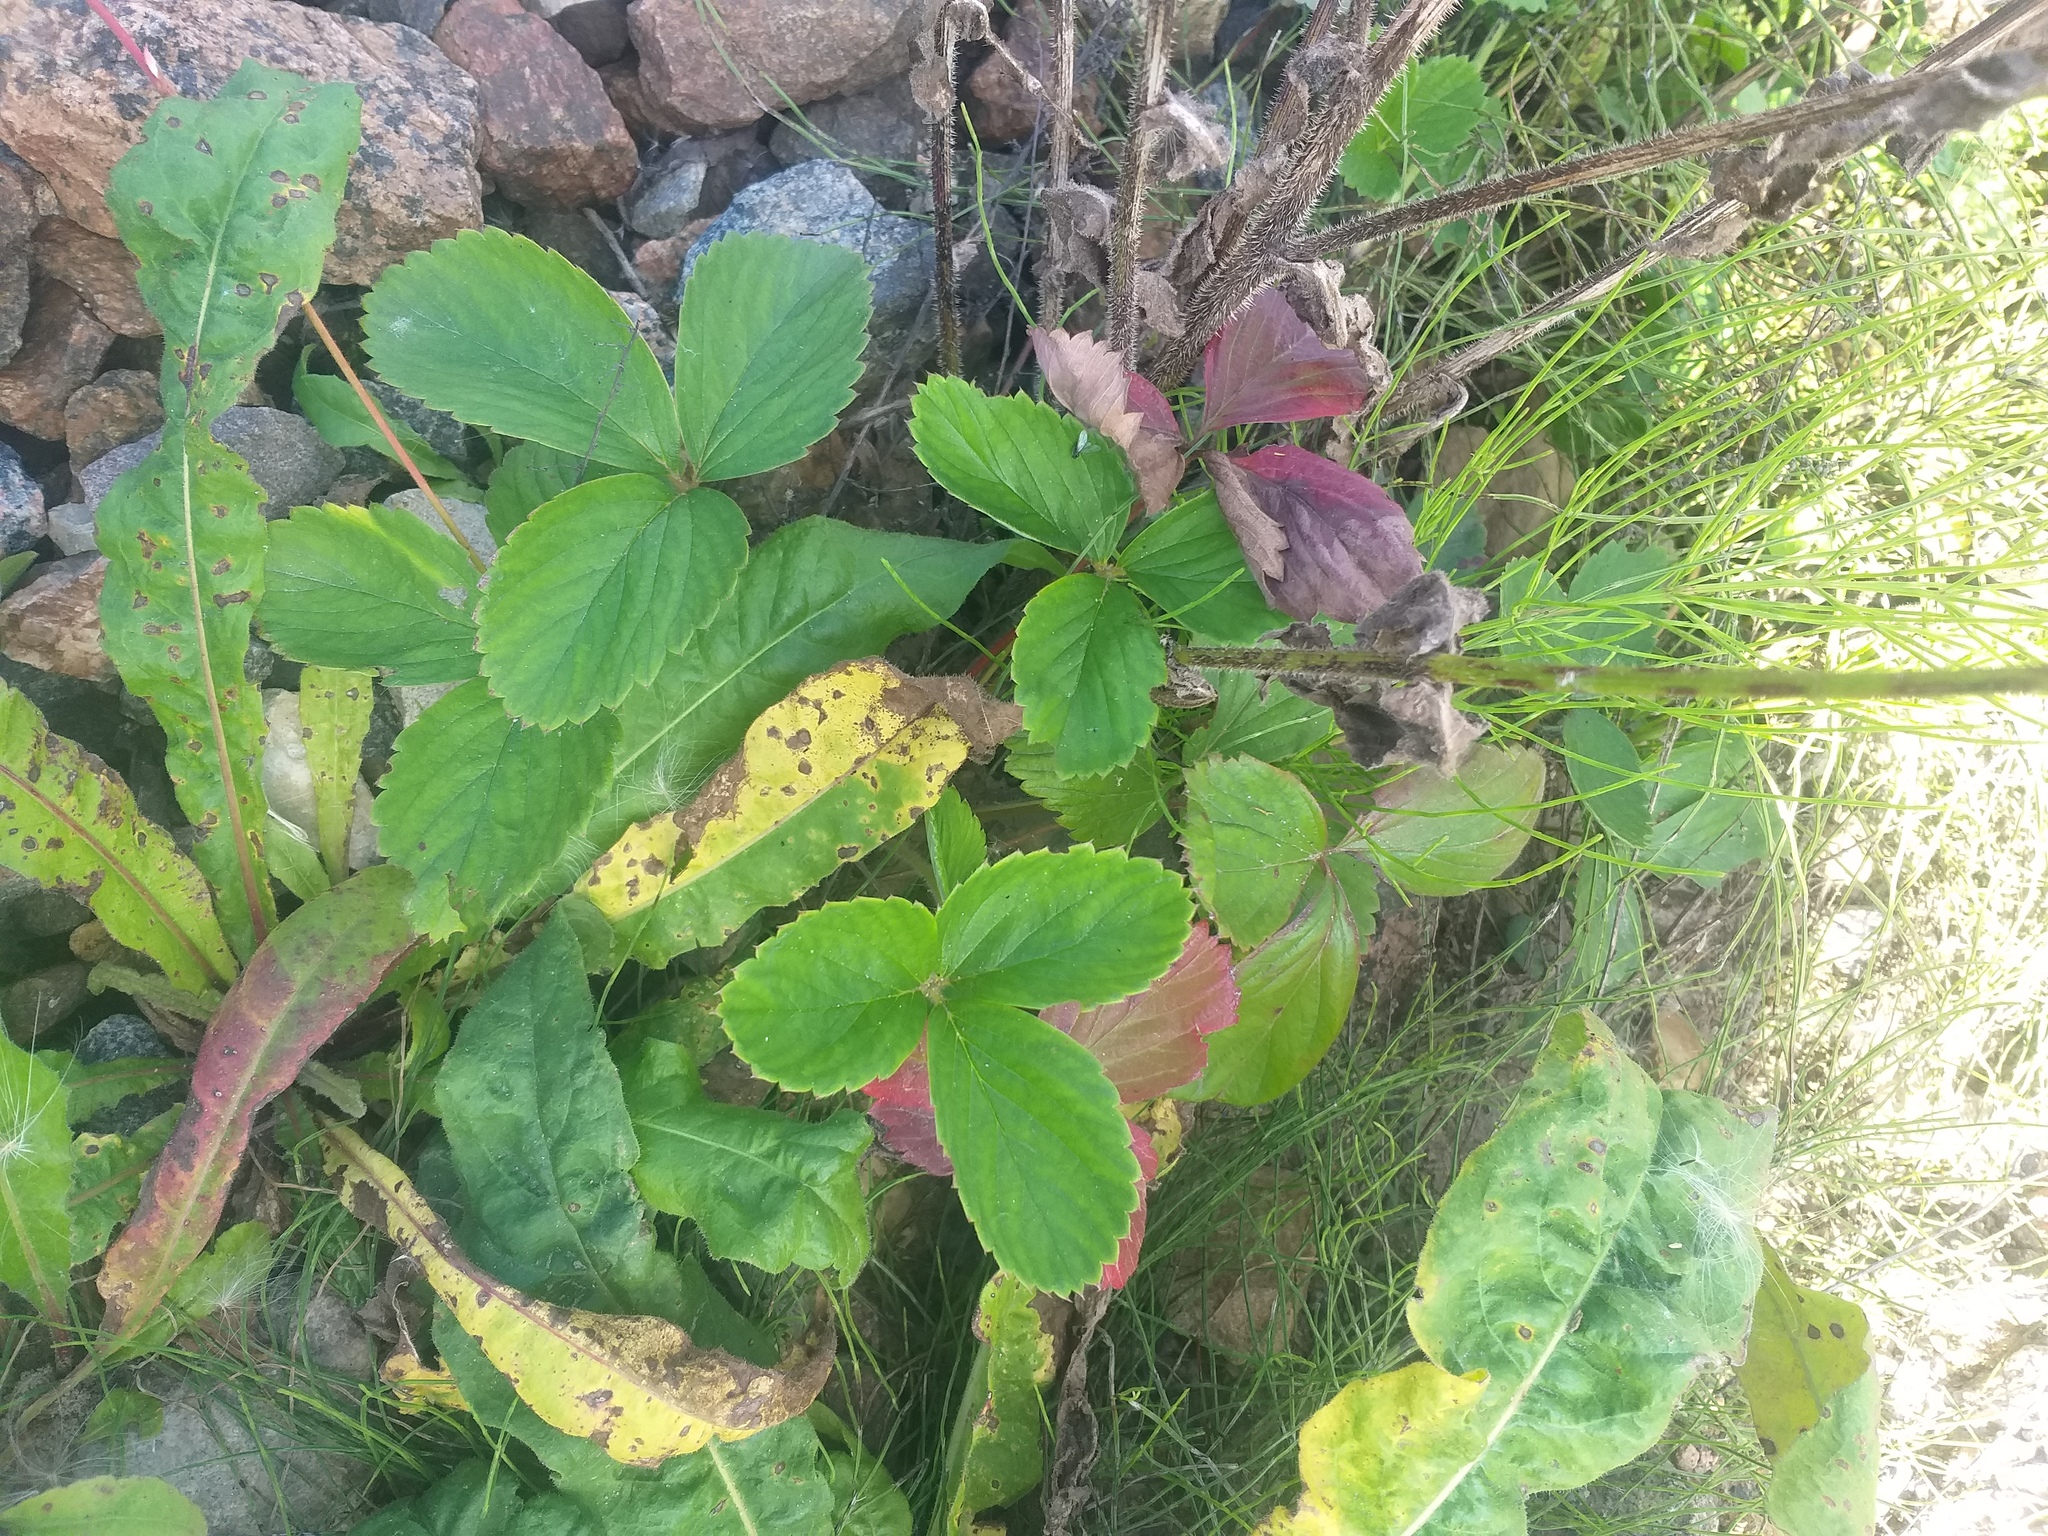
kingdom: Plantae
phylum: Tracheophyta
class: Magnoliopsida
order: Rosales
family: Rosaceae
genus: Fragaria
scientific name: Fragaria ananassa
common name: Garden strawberry
